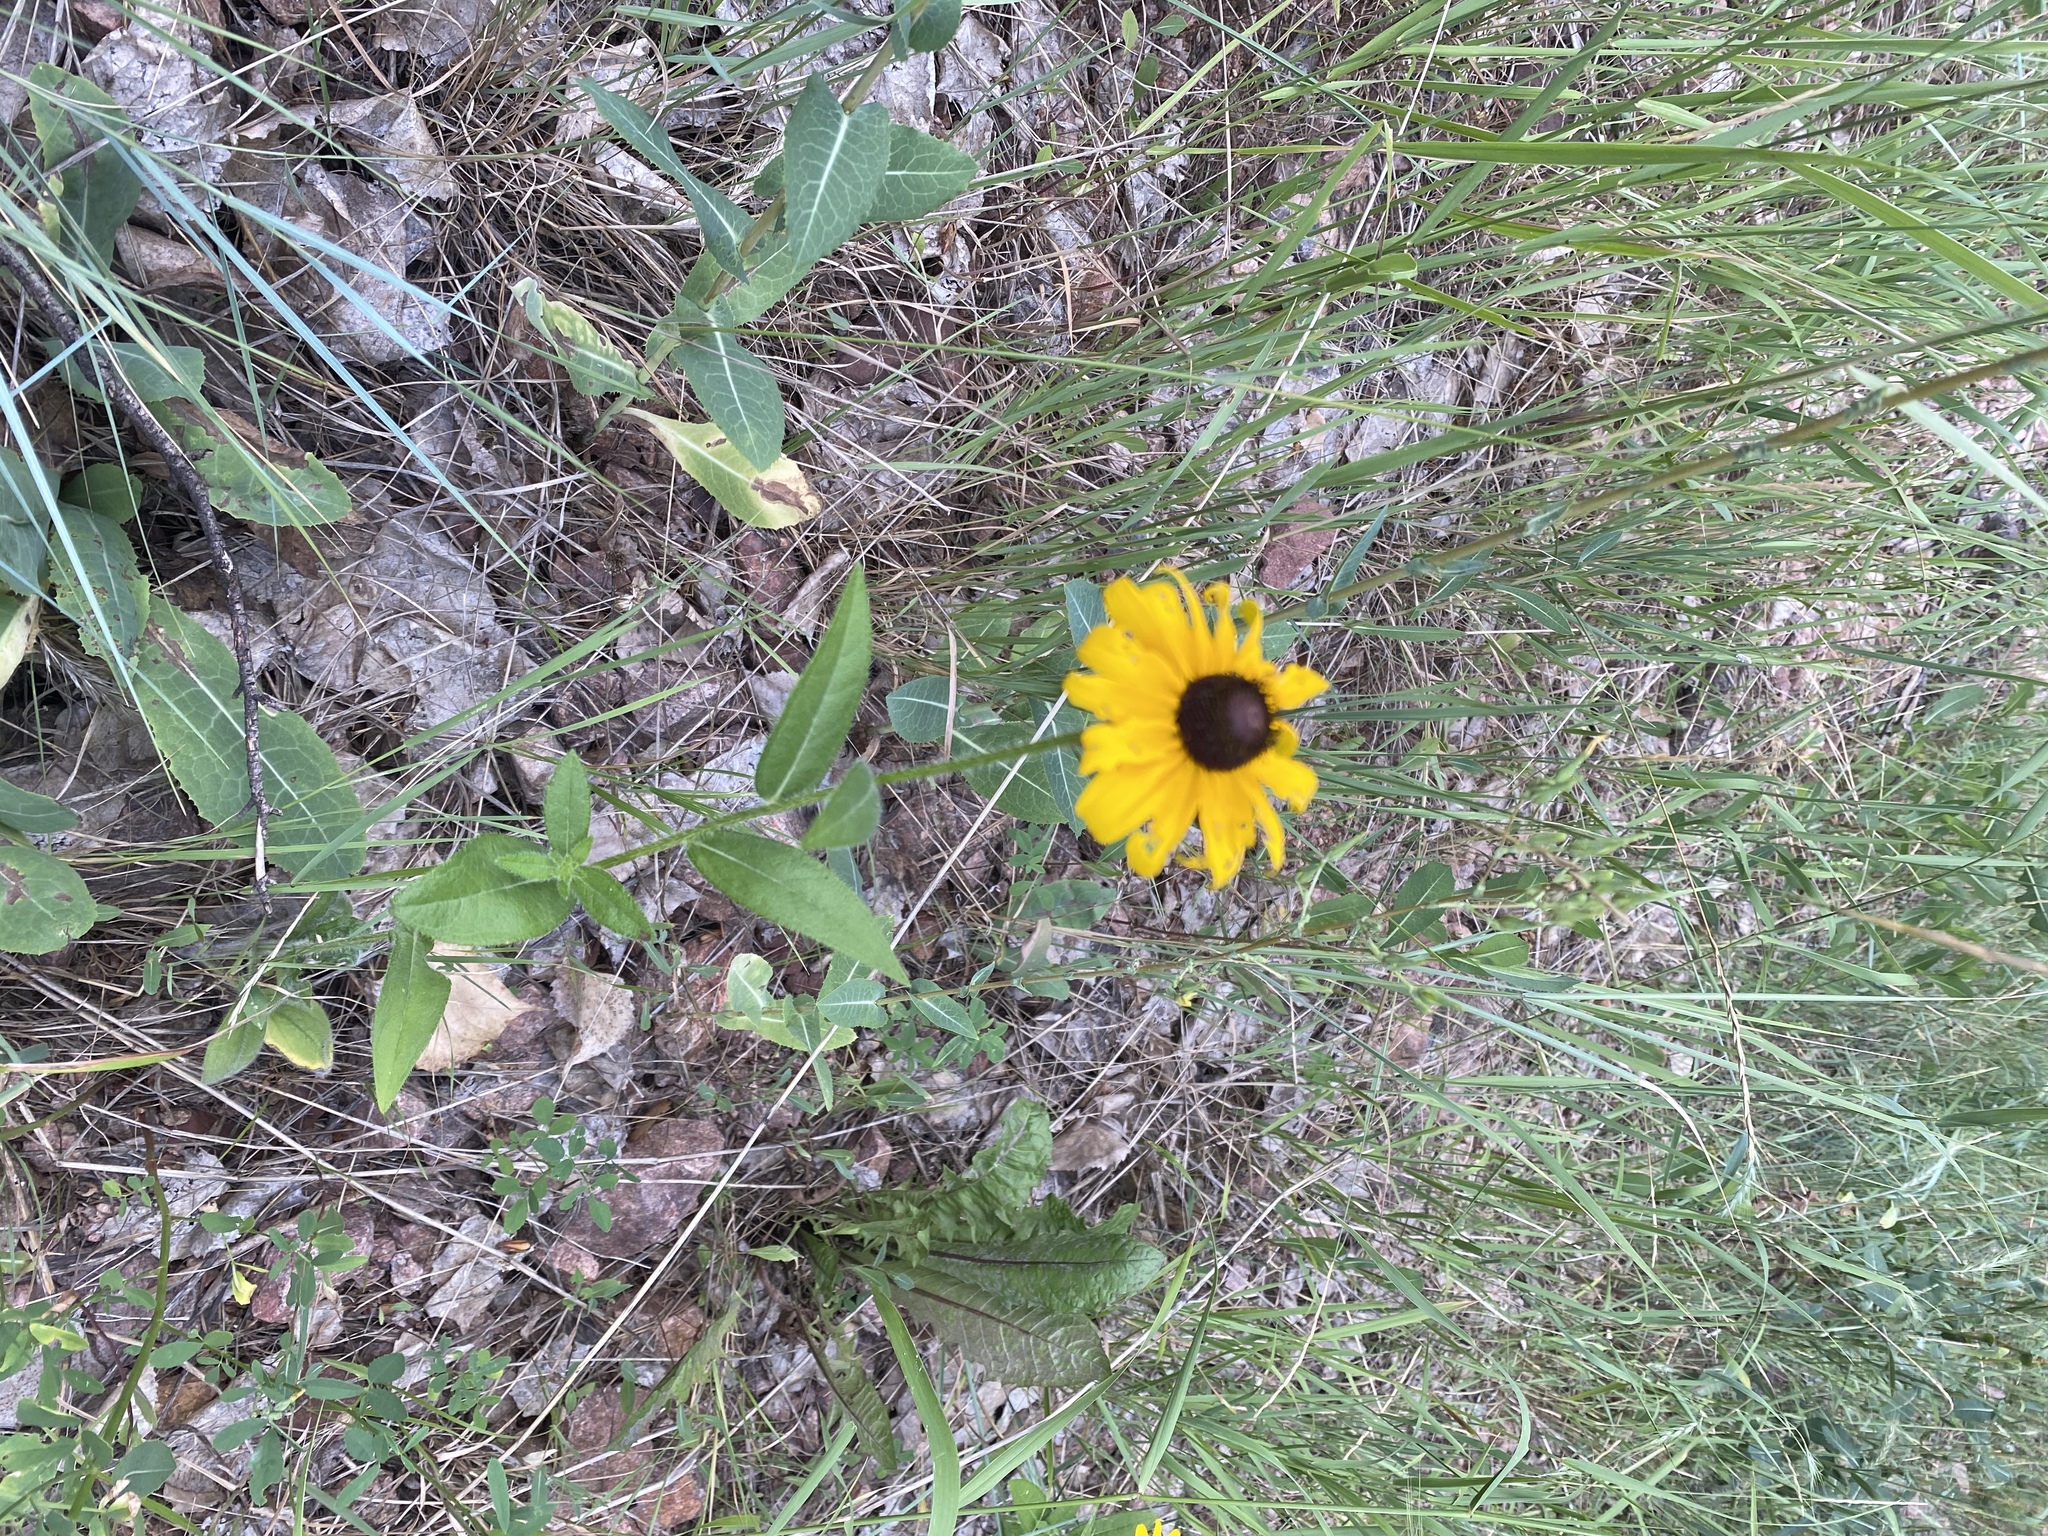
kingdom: Plantae
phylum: Tracheophyta
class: Magnoliopsida
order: Asterales
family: Asteraceae
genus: Rudbeckia
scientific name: Rudbeckia hirta
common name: Black-eyed-susan
